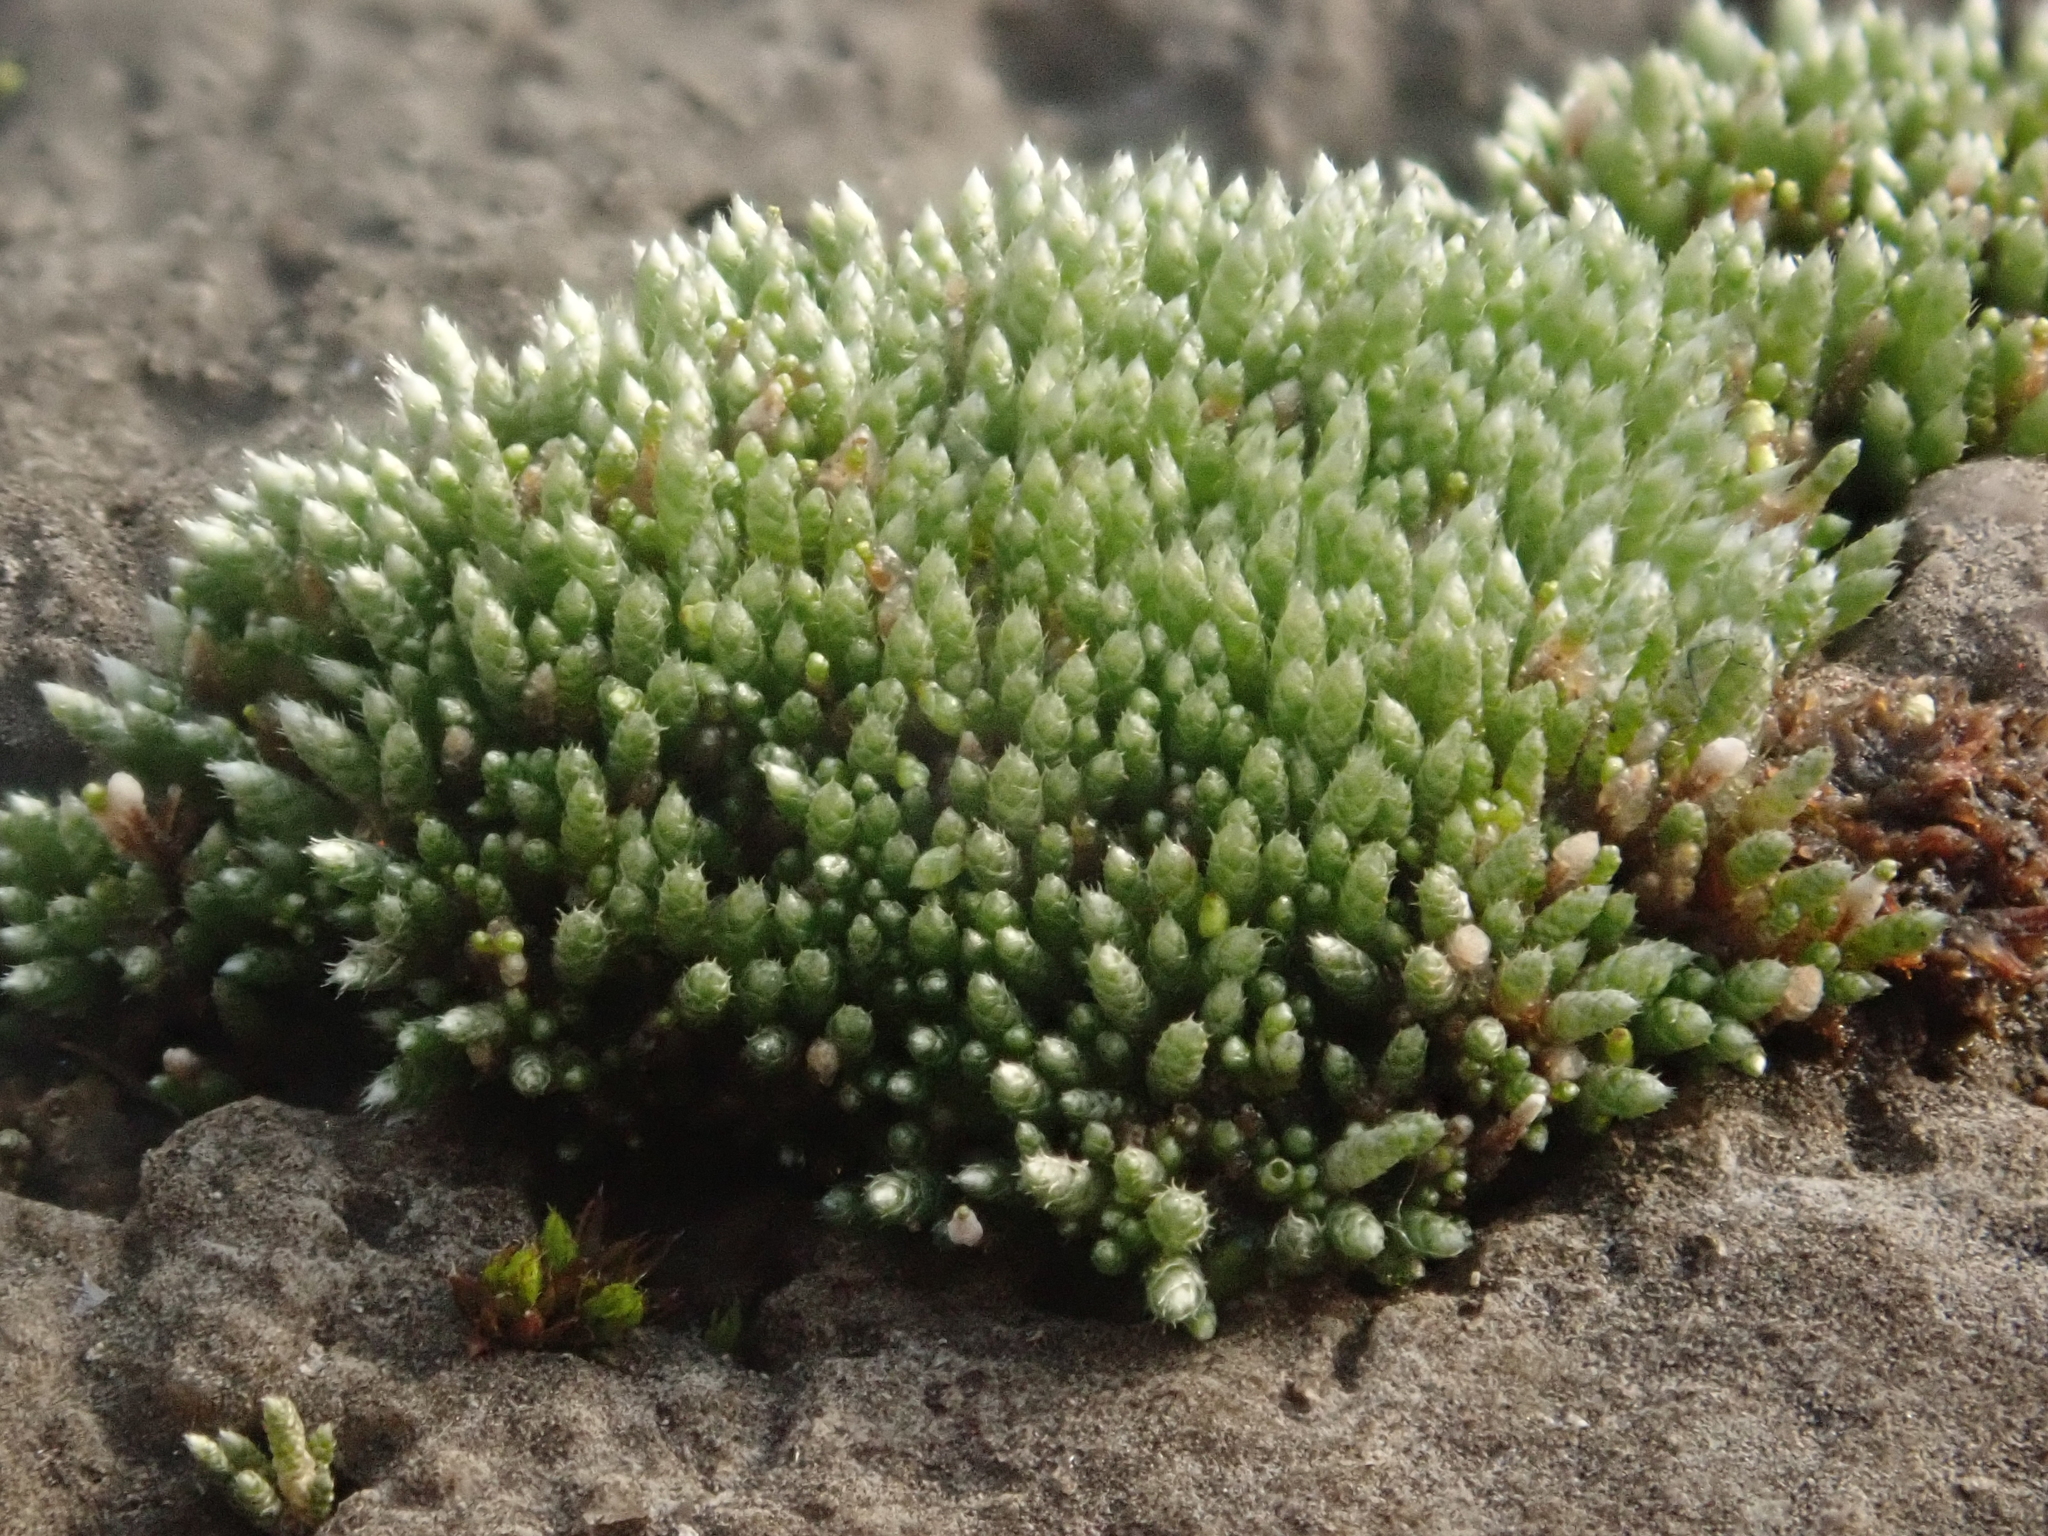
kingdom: Plantae
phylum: Bryophyta
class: Bryopsida
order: Bryales
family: Bryaceae
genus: Bryum
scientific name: Bryum argenteum
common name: Silver-moss
